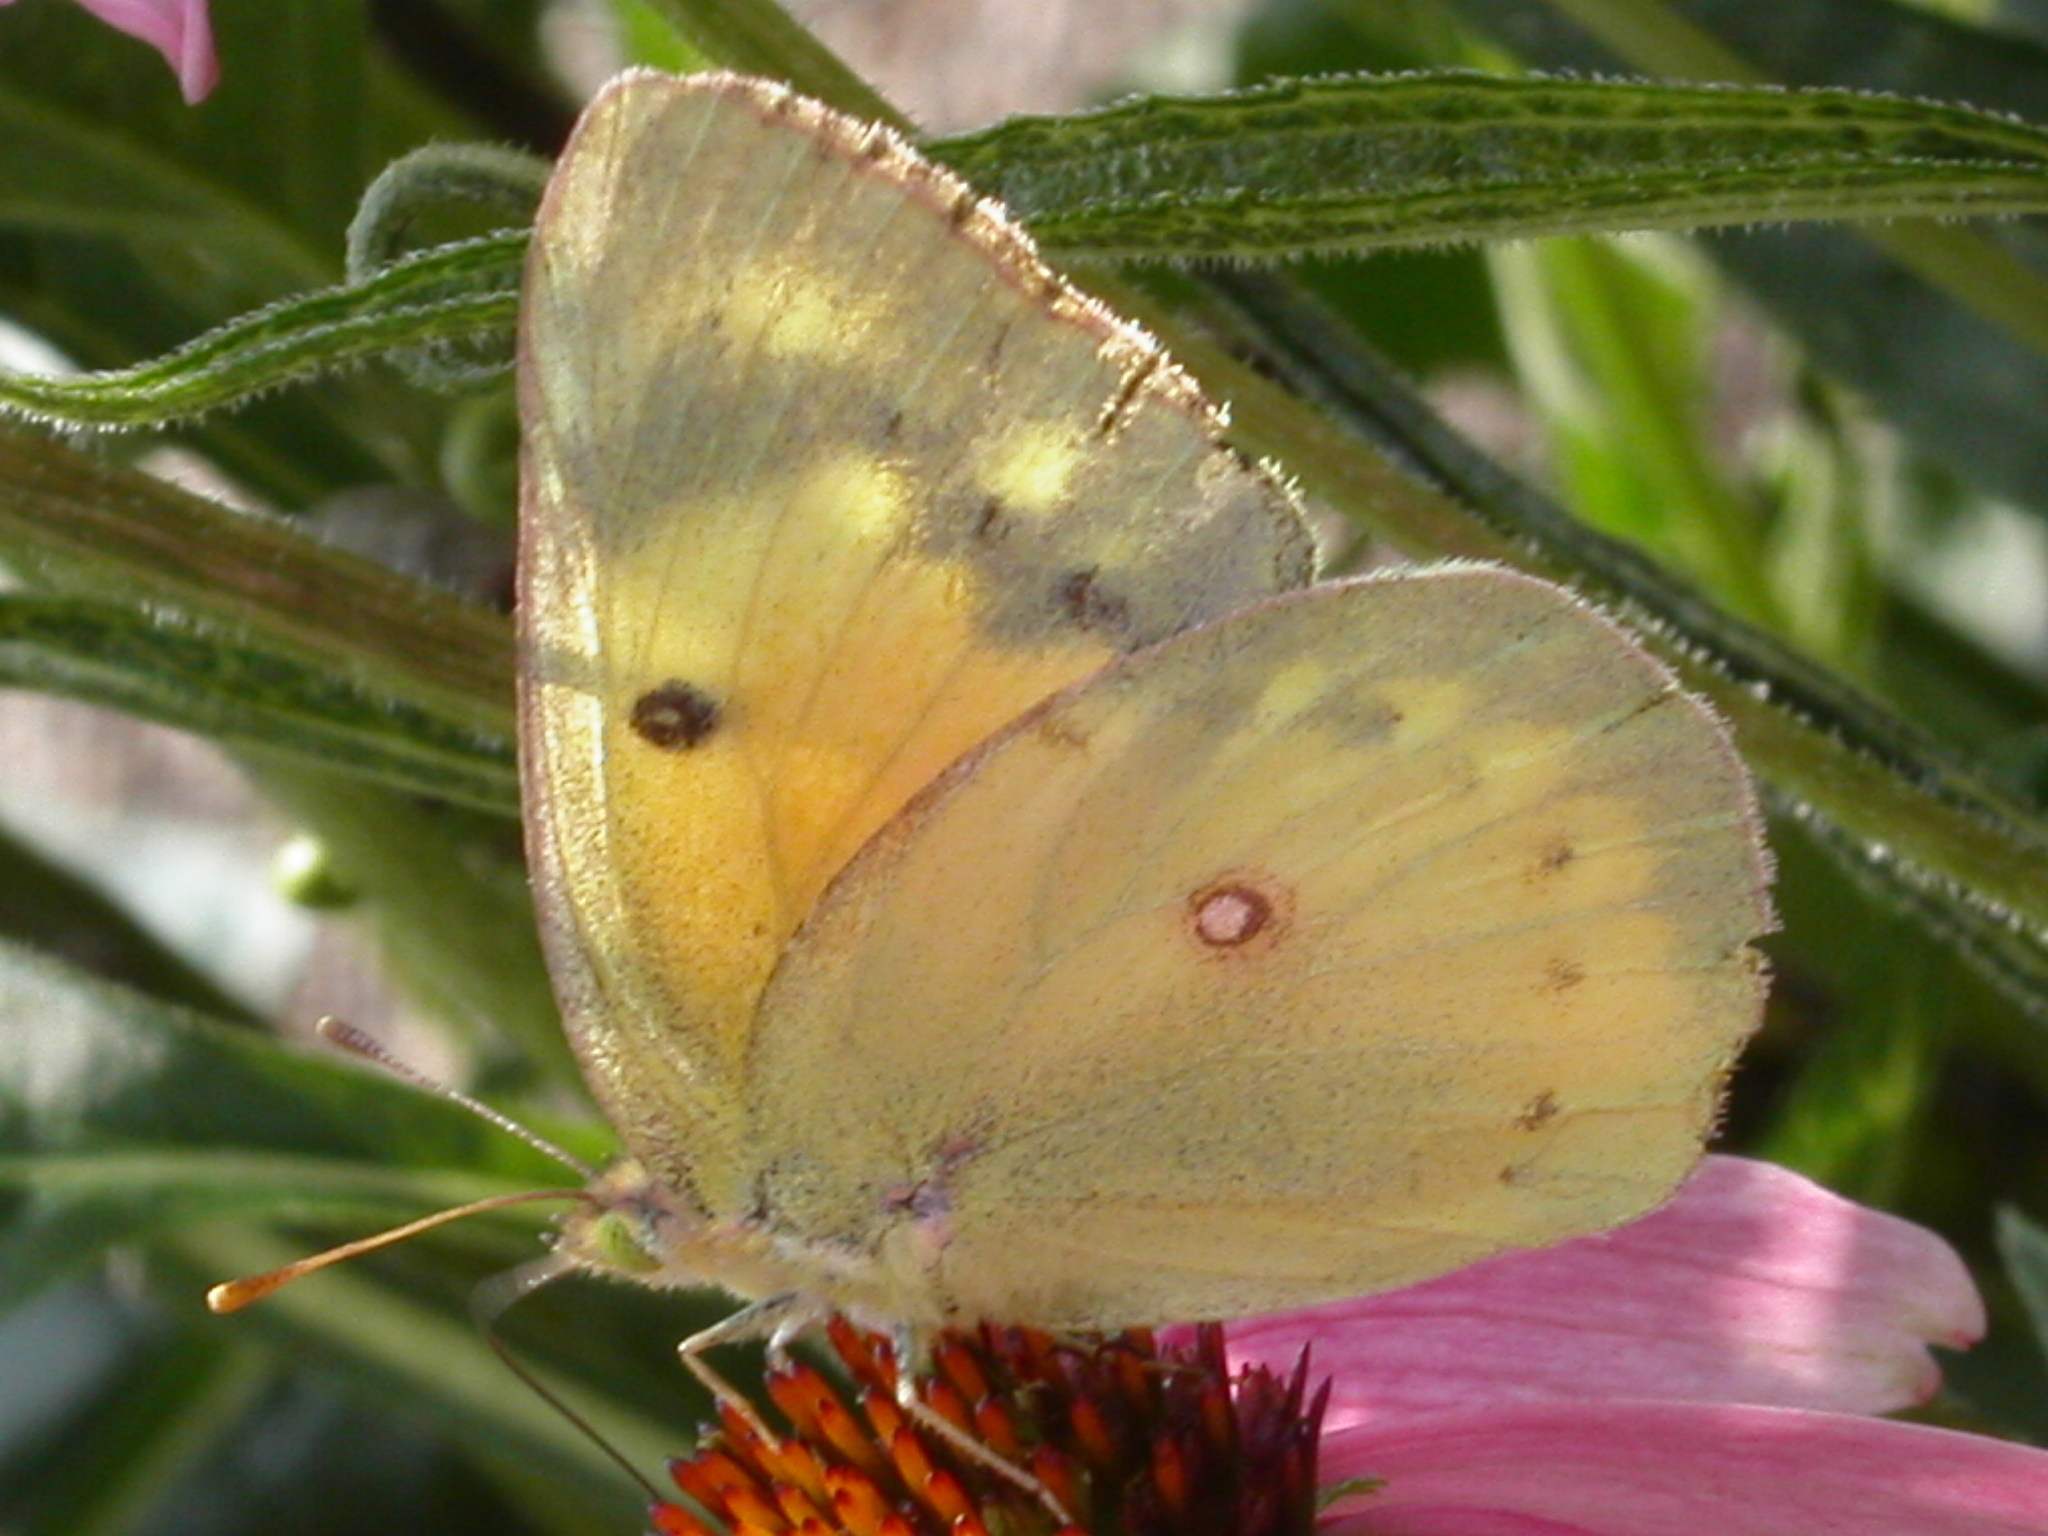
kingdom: Animalia
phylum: Arthropoda
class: Insecta
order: Lepidoptera
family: Pieridae
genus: Colias
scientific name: Colias eurytheme
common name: Alfalfa butterfly
